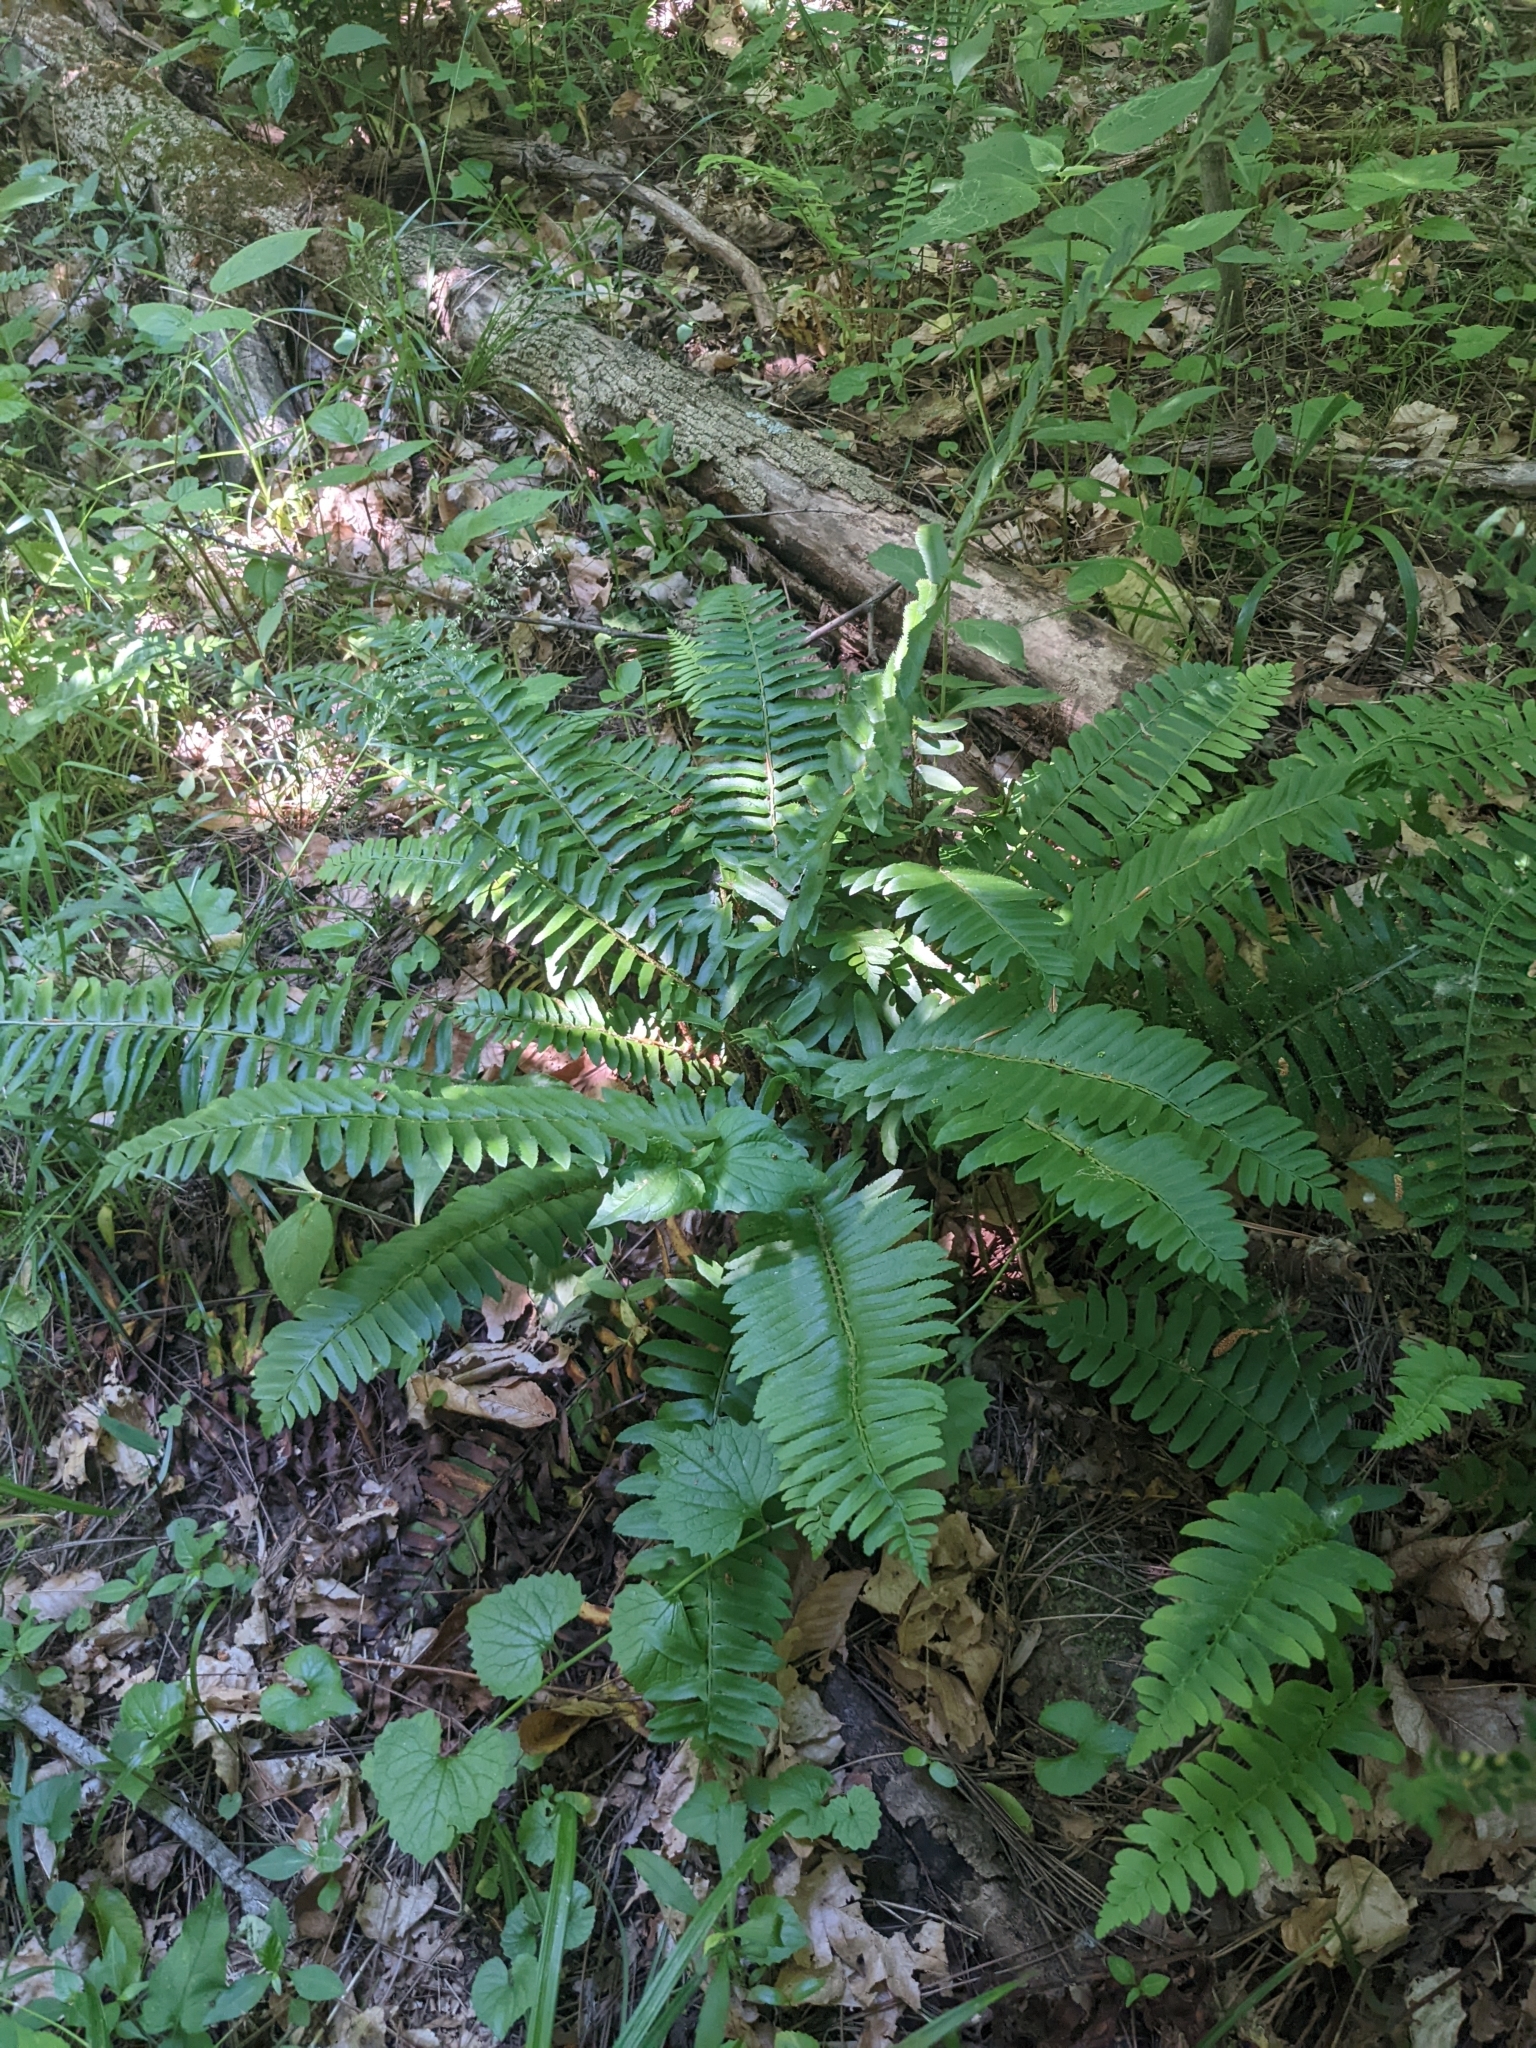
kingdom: Plantae
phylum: Tracheophyta
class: Polypodiopsida
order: Polypodiales
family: Dryopteridaceae
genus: Polystichum
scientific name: Polystichum acrostichoides
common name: Christmas fern
